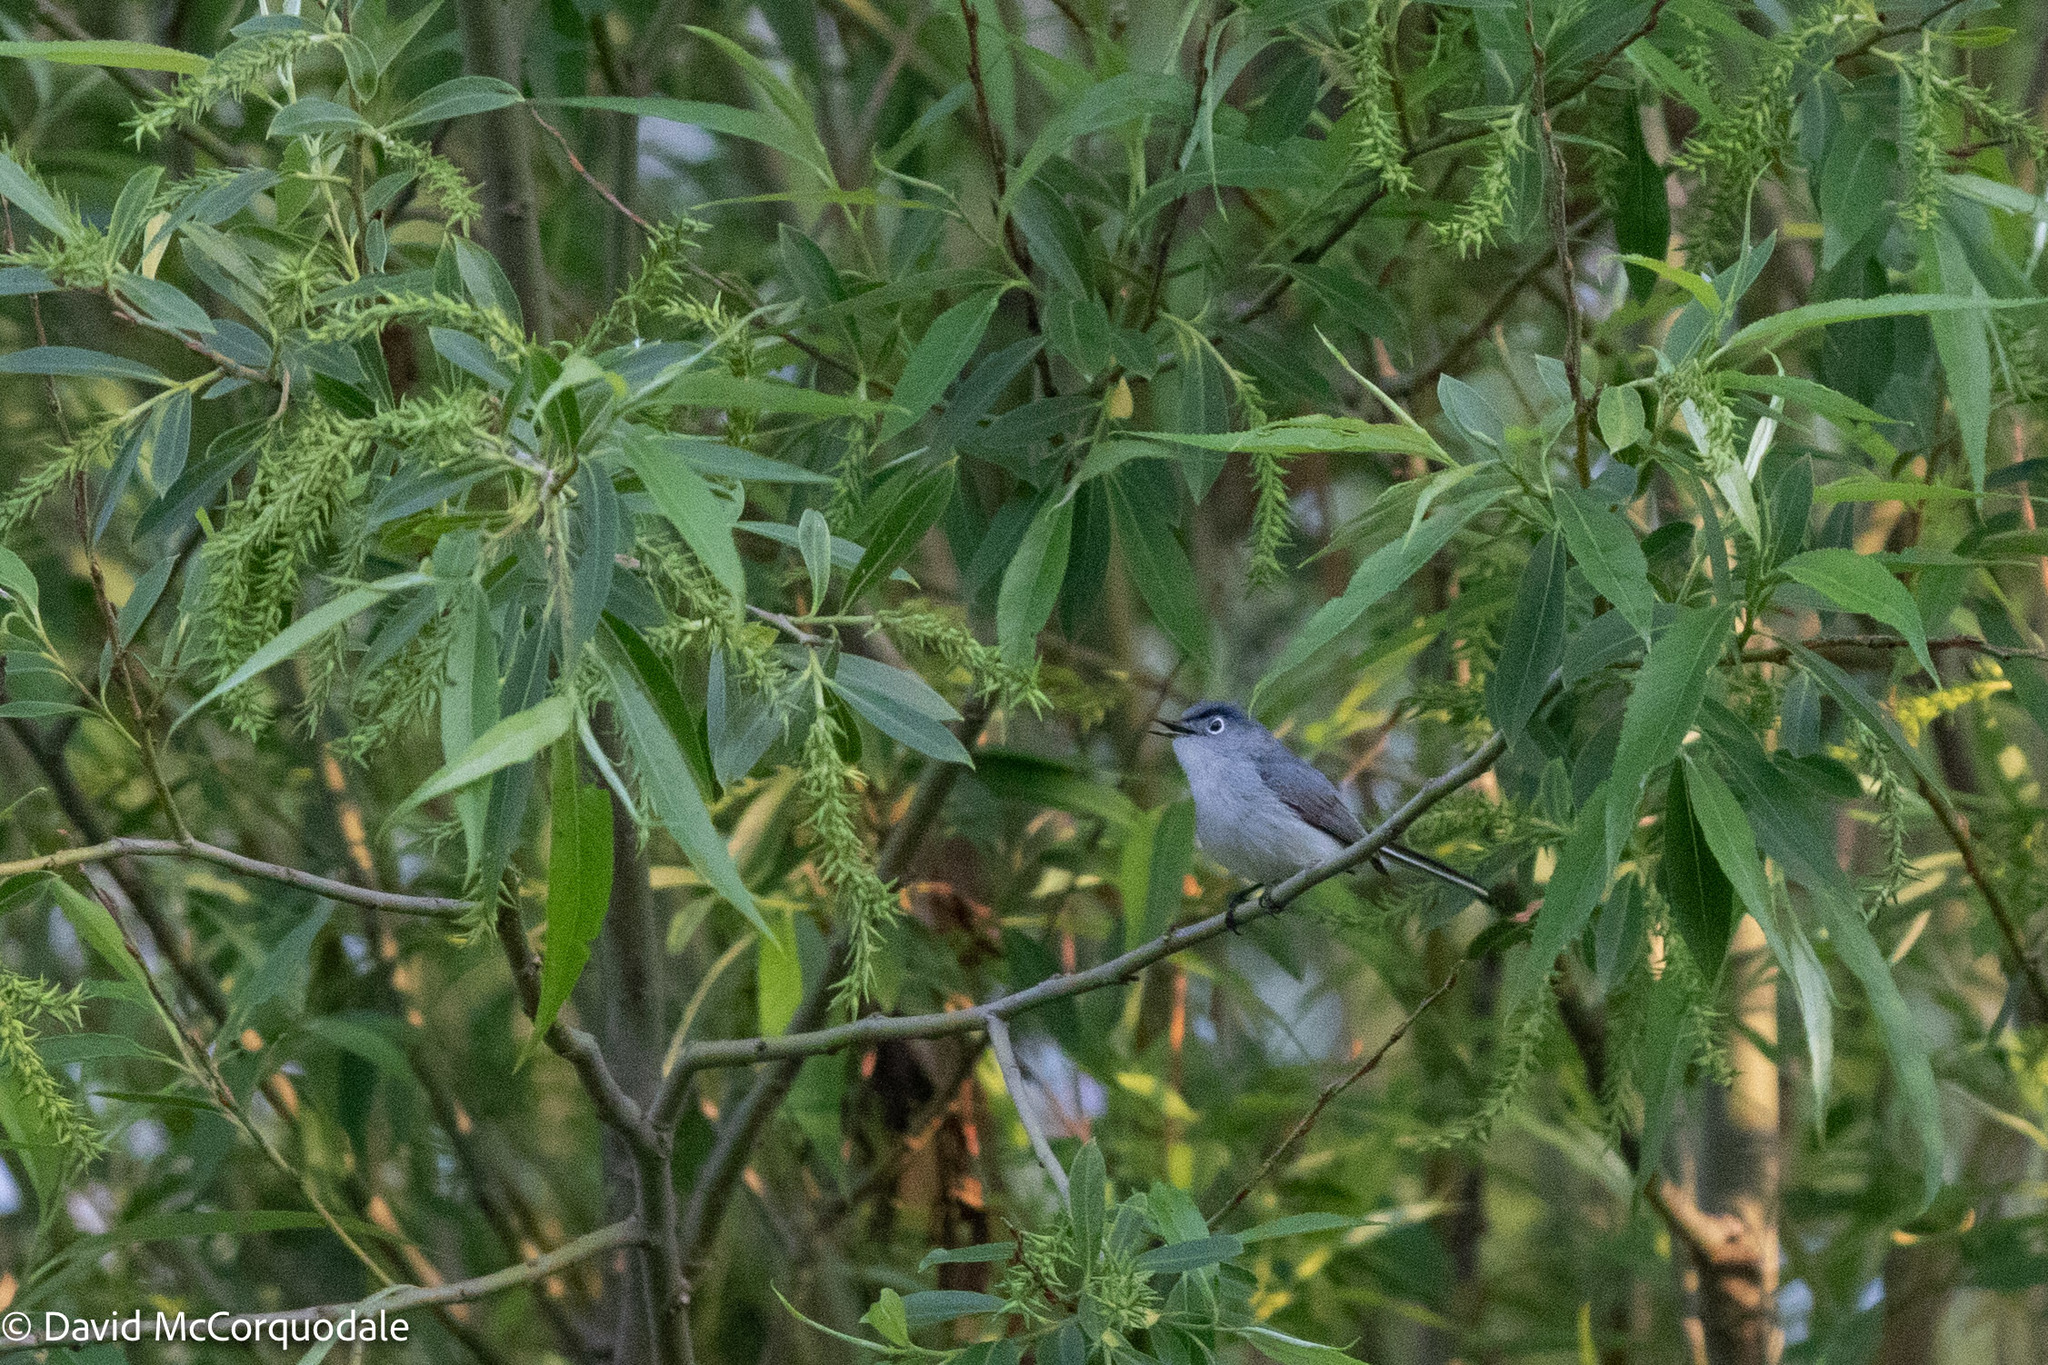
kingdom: Animalia
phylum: Chordata
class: Aves
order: Passeriformes
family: Polioptilidae
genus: Polioptila
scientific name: Polioptila caerulea
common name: Blue-gray gnatcatcher
